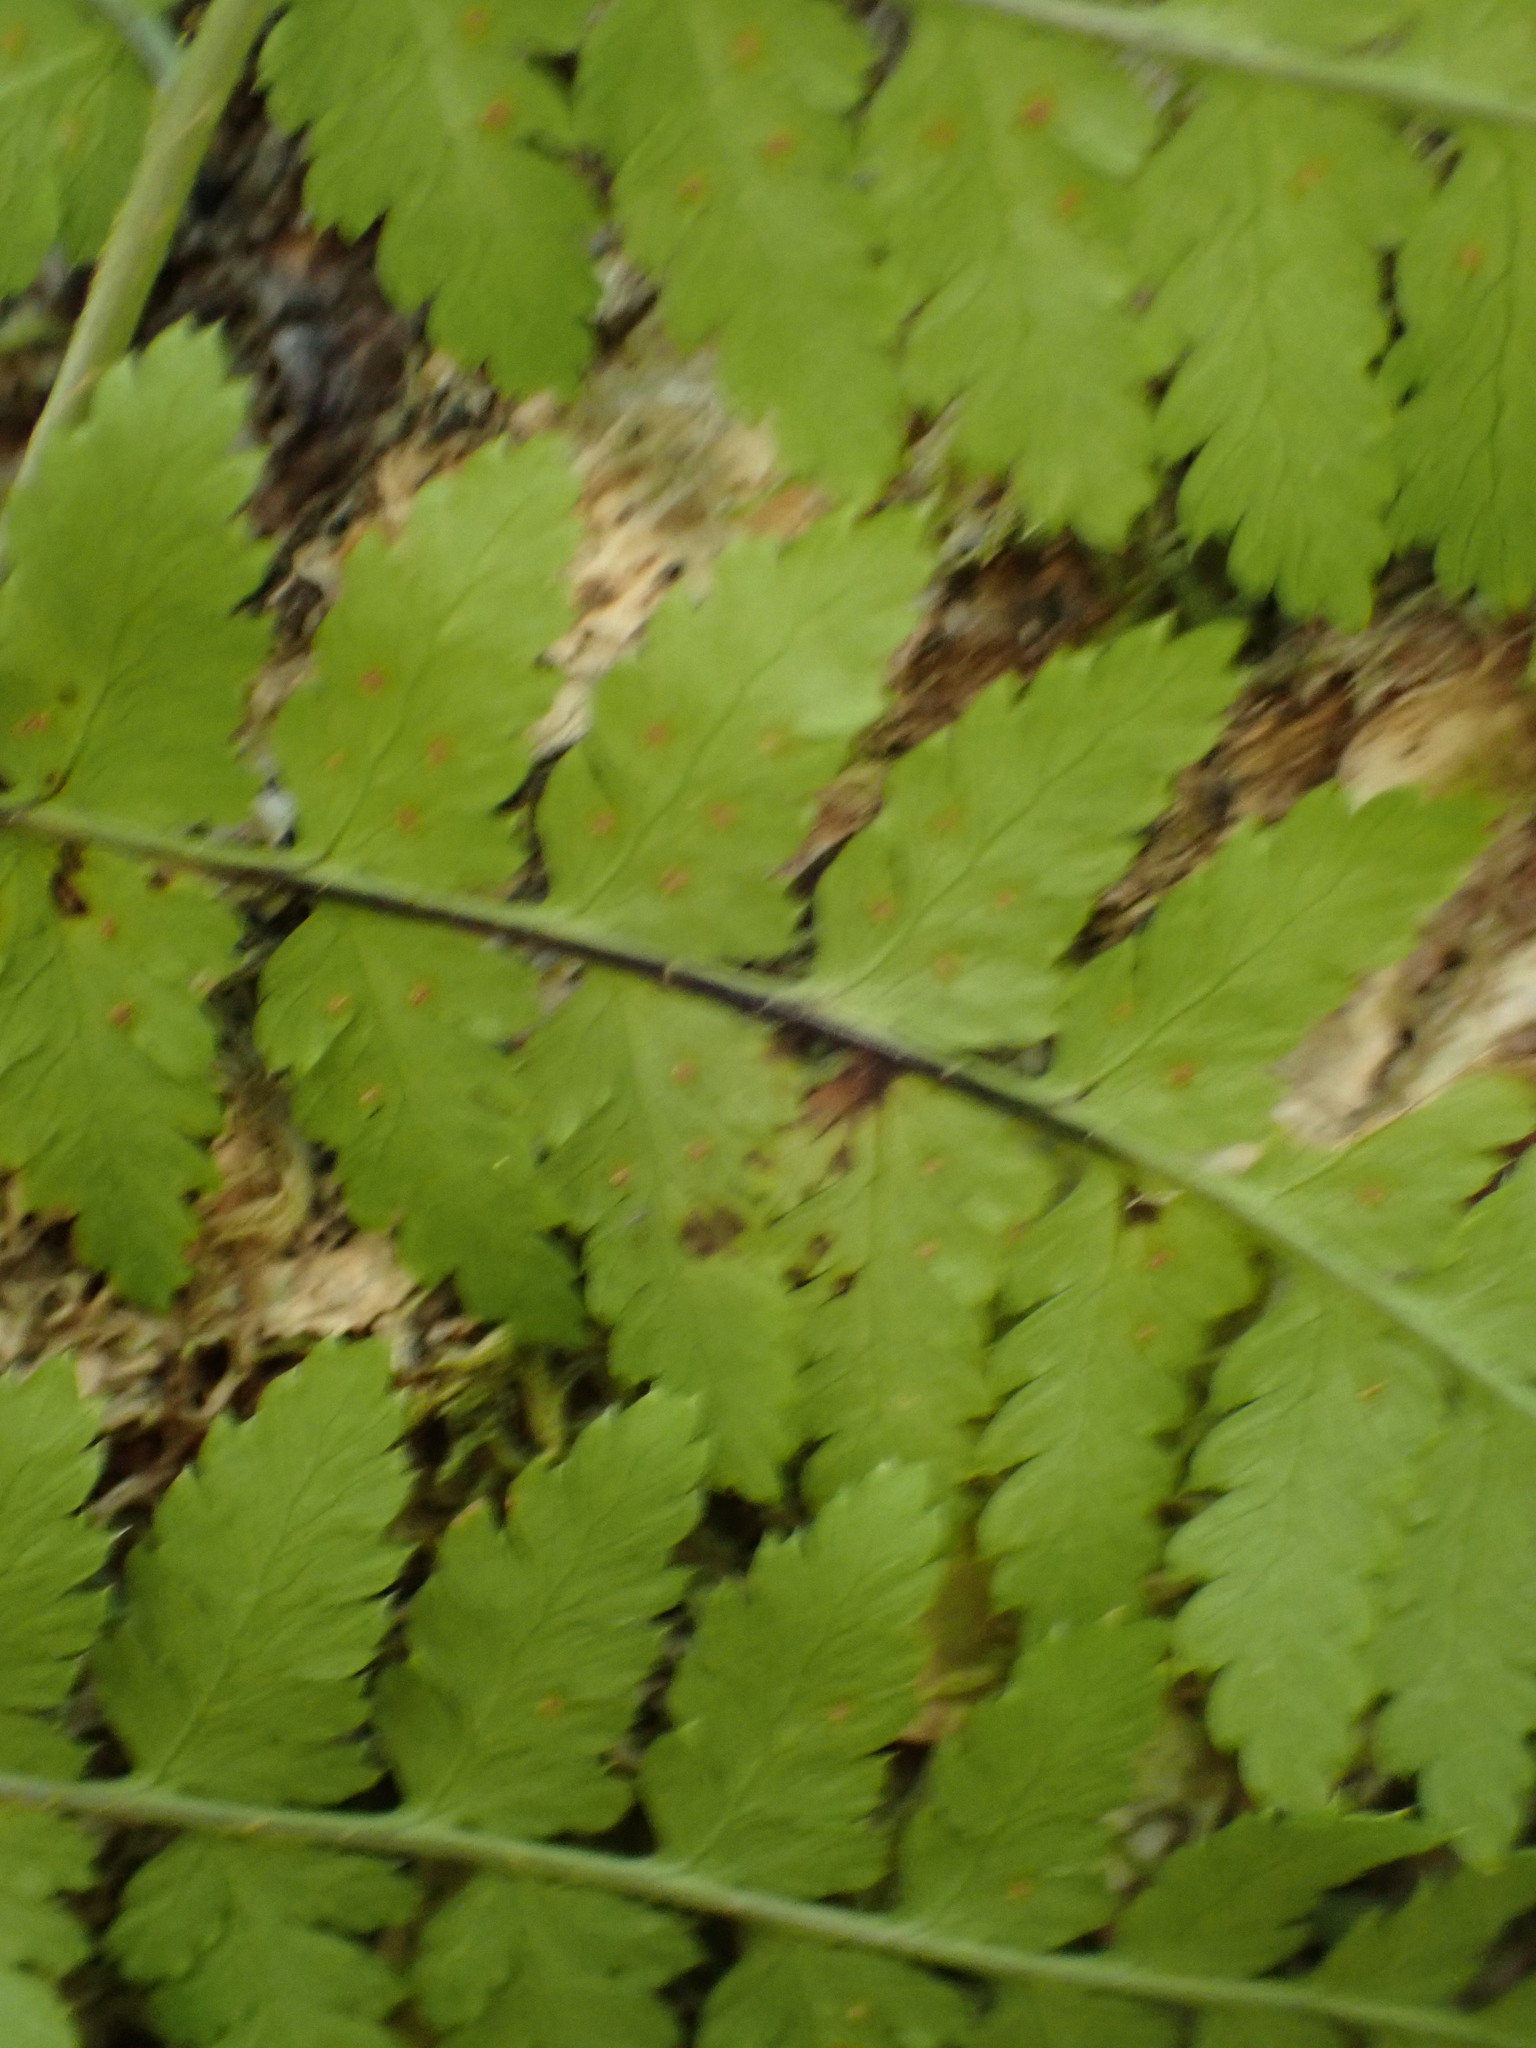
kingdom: Plantae
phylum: Tracheophyta
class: Polypodiopsida
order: Polypodiales
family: Dryopteridaceae
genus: Dryopteris
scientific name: Dryopteris expansa
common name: Northern buckler fern
